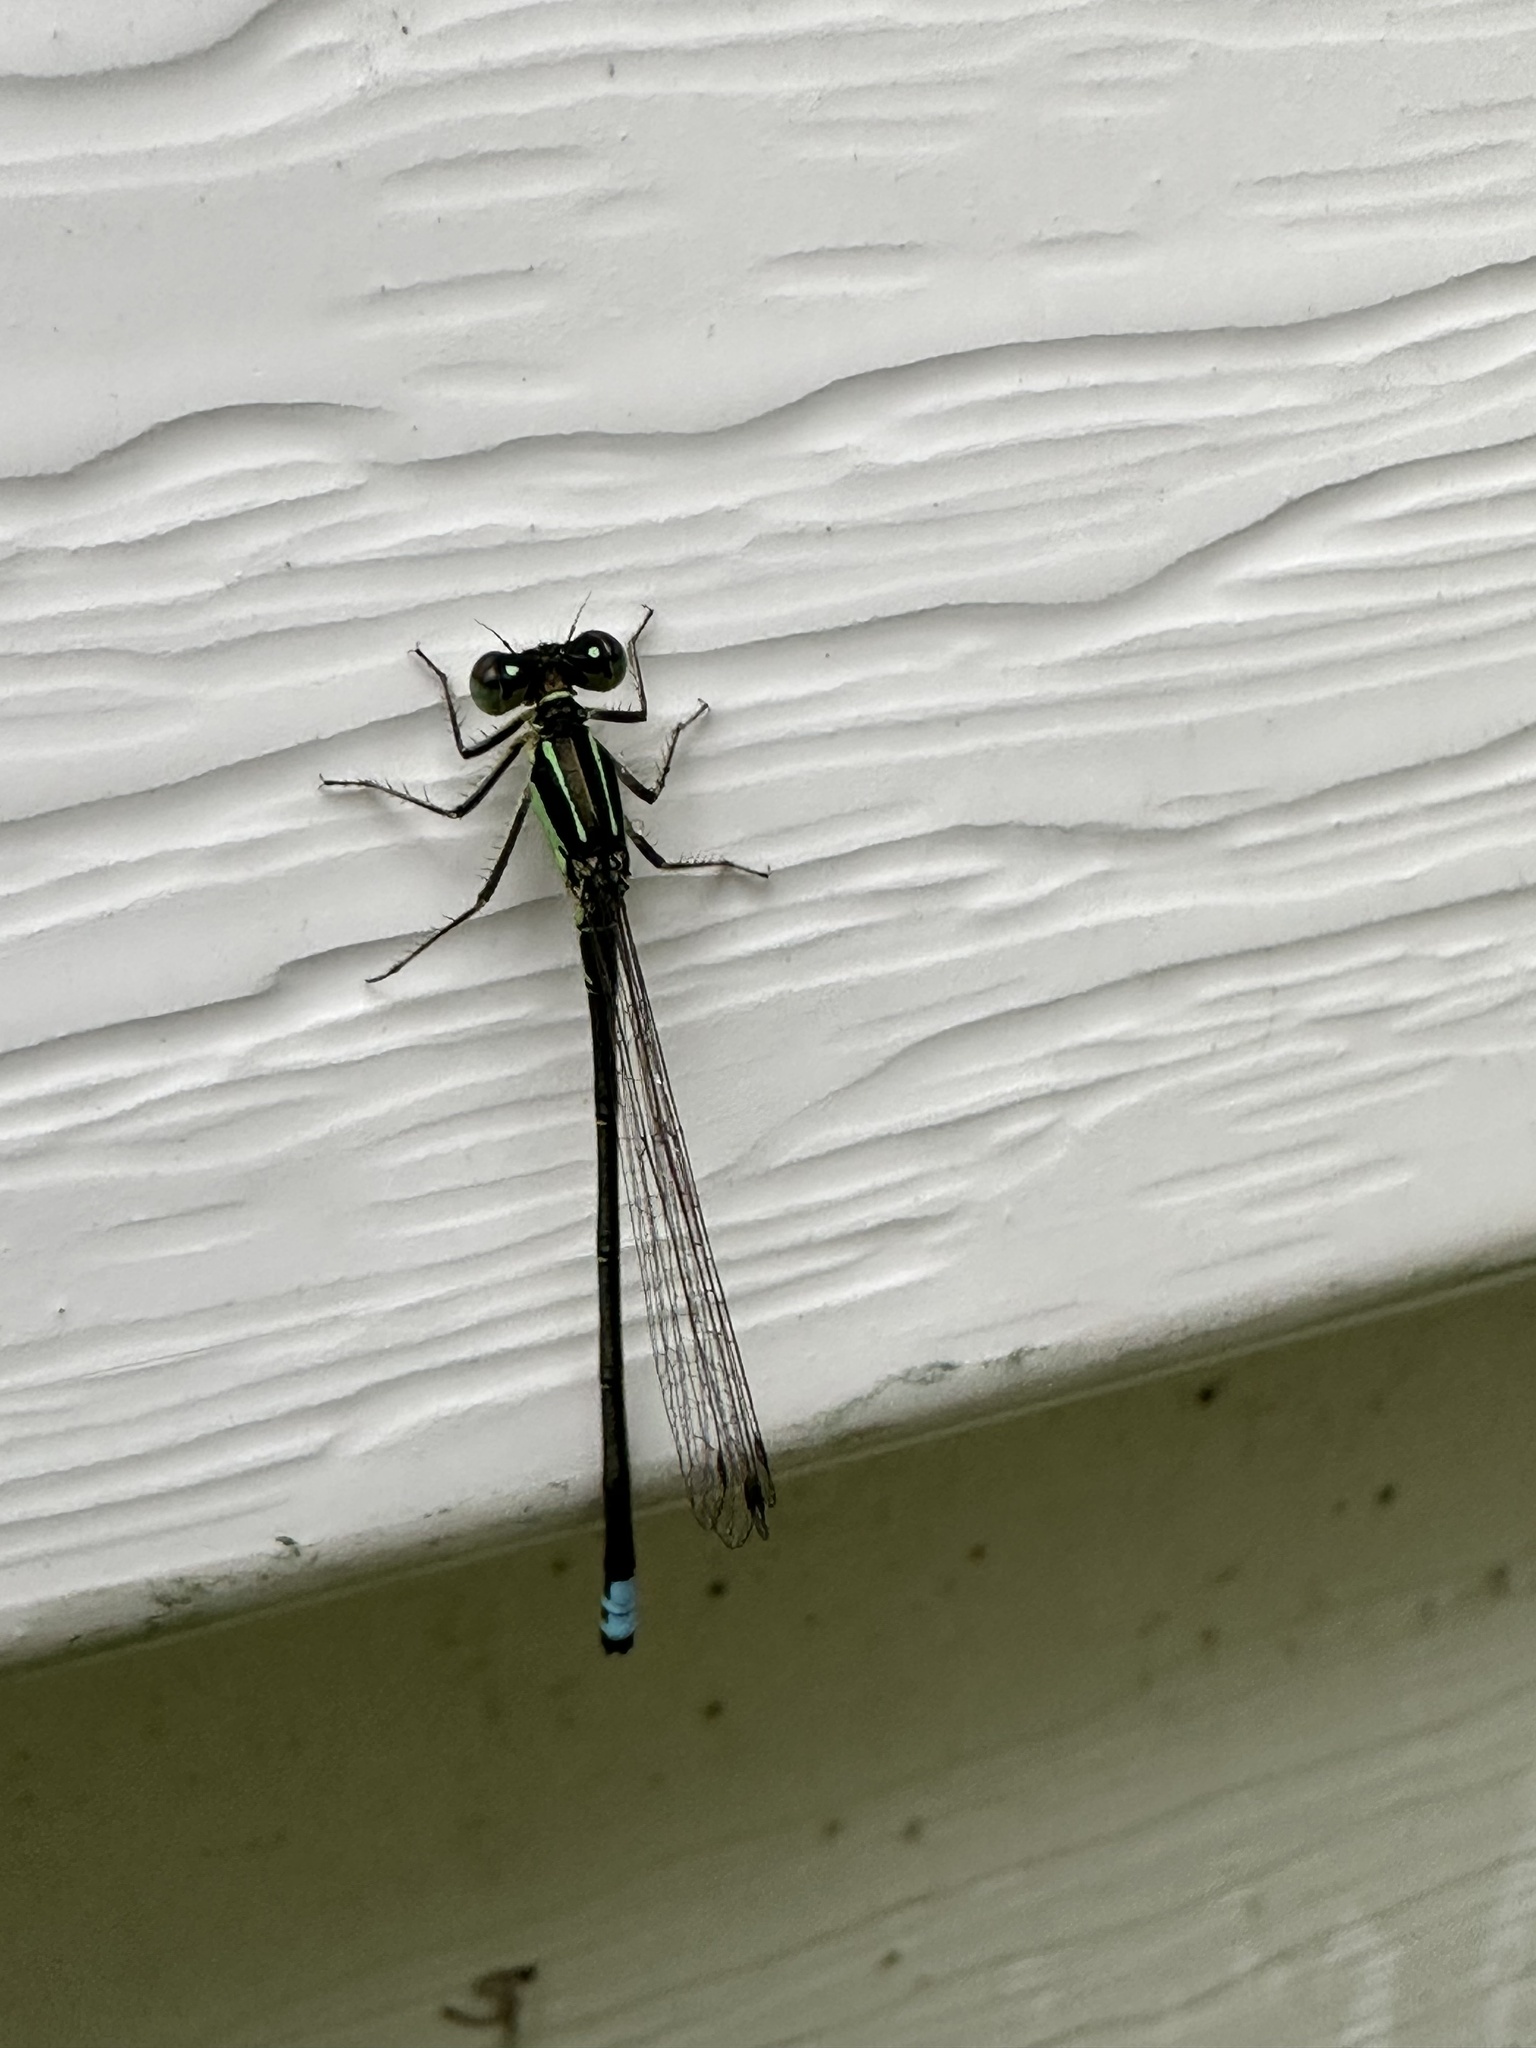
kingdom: Animalia
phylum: Arthropoda
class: Insecta
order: Odonata
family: Coenagrionidae
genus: Ischnura
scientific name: Ischnura verticalis
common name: Eastern forktail
